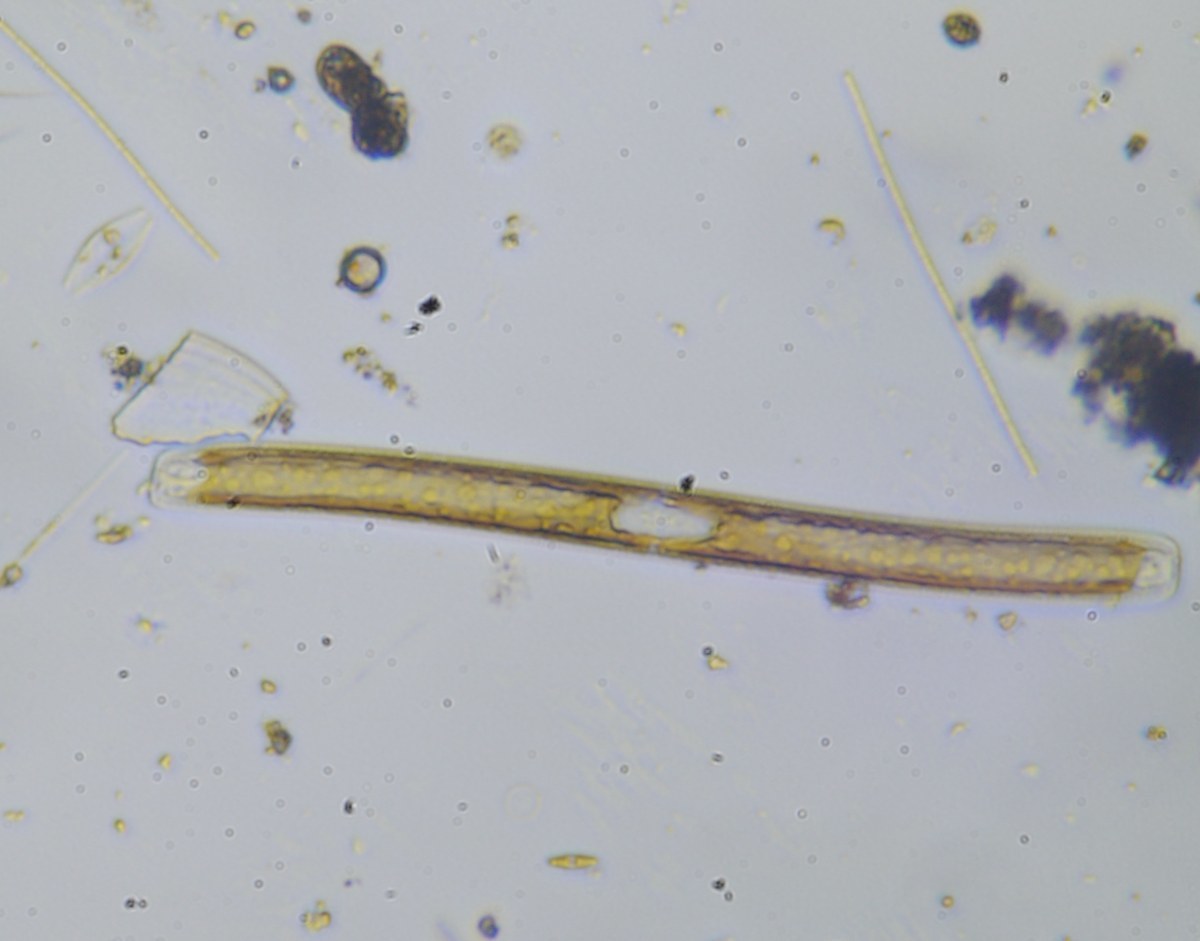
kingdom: Chromista
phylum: Ochrophyta
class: Bacillariophyceae
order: Bacillariales
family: Bacillariaceae
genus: Nitzschia
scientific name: Nitzschia sigmoidea
